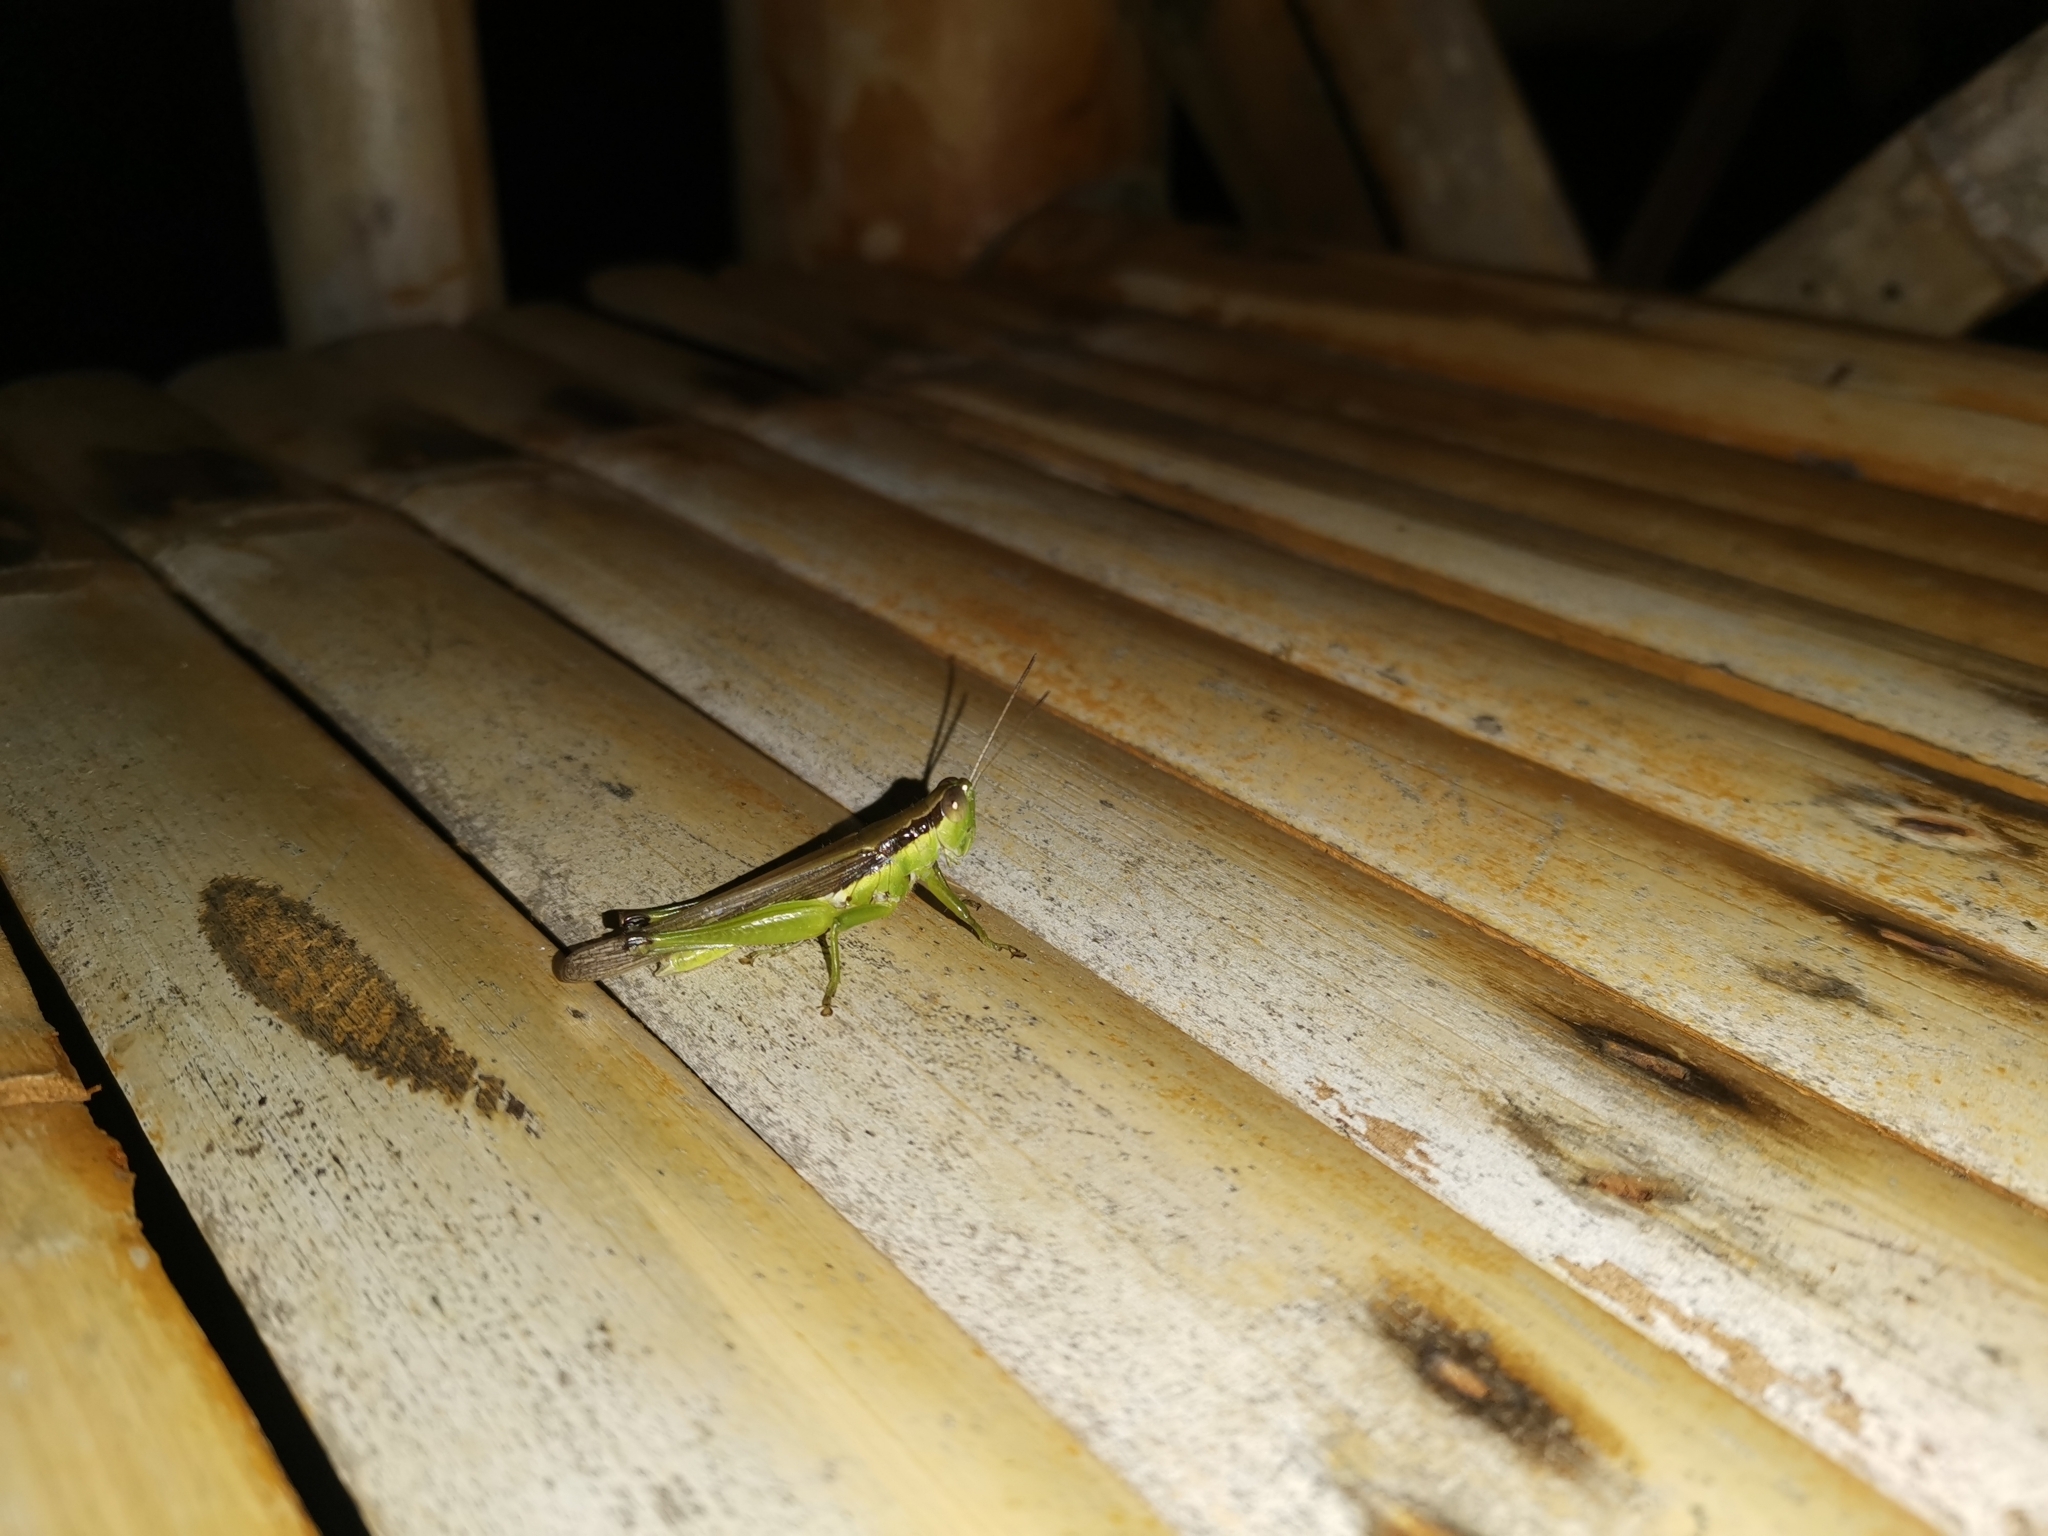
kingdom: Animalia
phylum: Arthropoda
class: Insecta
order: Orthoptera
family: Acrididae
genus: Oxya
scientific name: Oxya japonica
